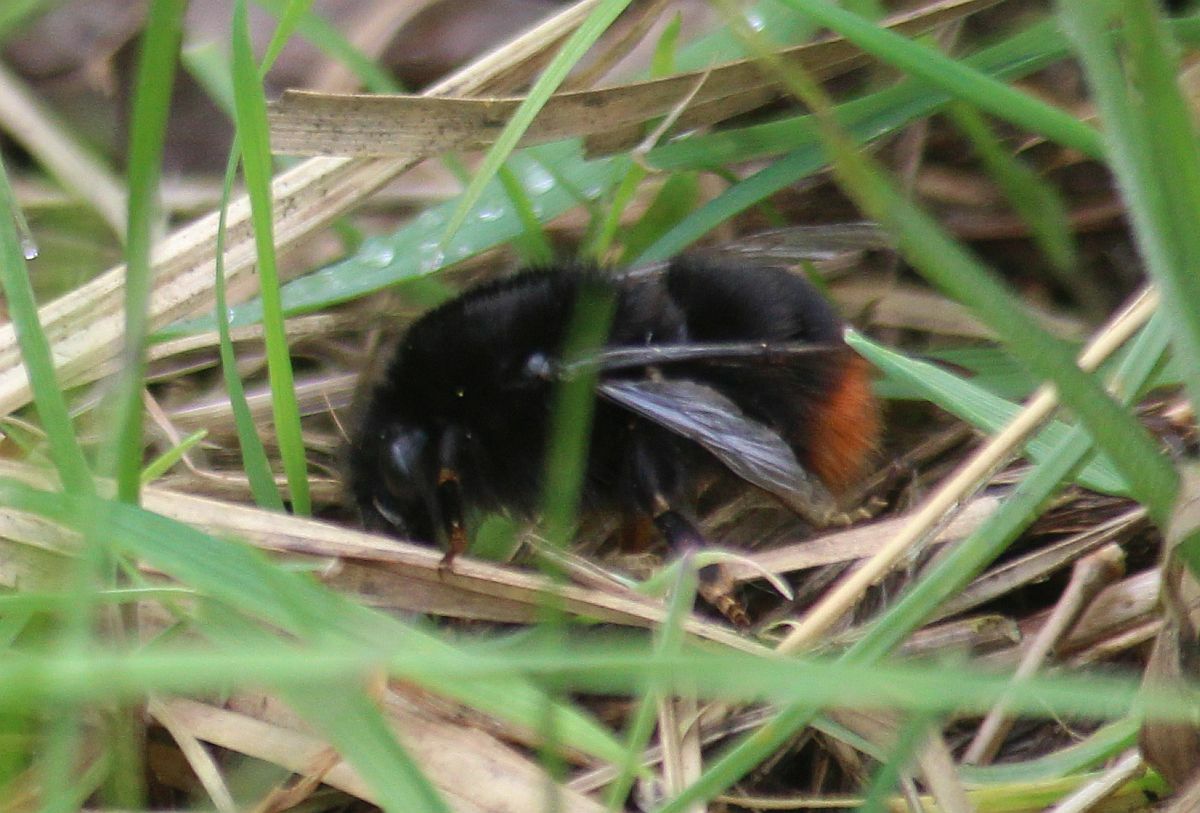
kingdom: Animalia
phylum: Arthropoda
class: Insecta
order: Hymenoptera
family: Apidae
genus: Bombus
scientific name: Bombus lapidarius
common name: Large red-tailed humble-bee
